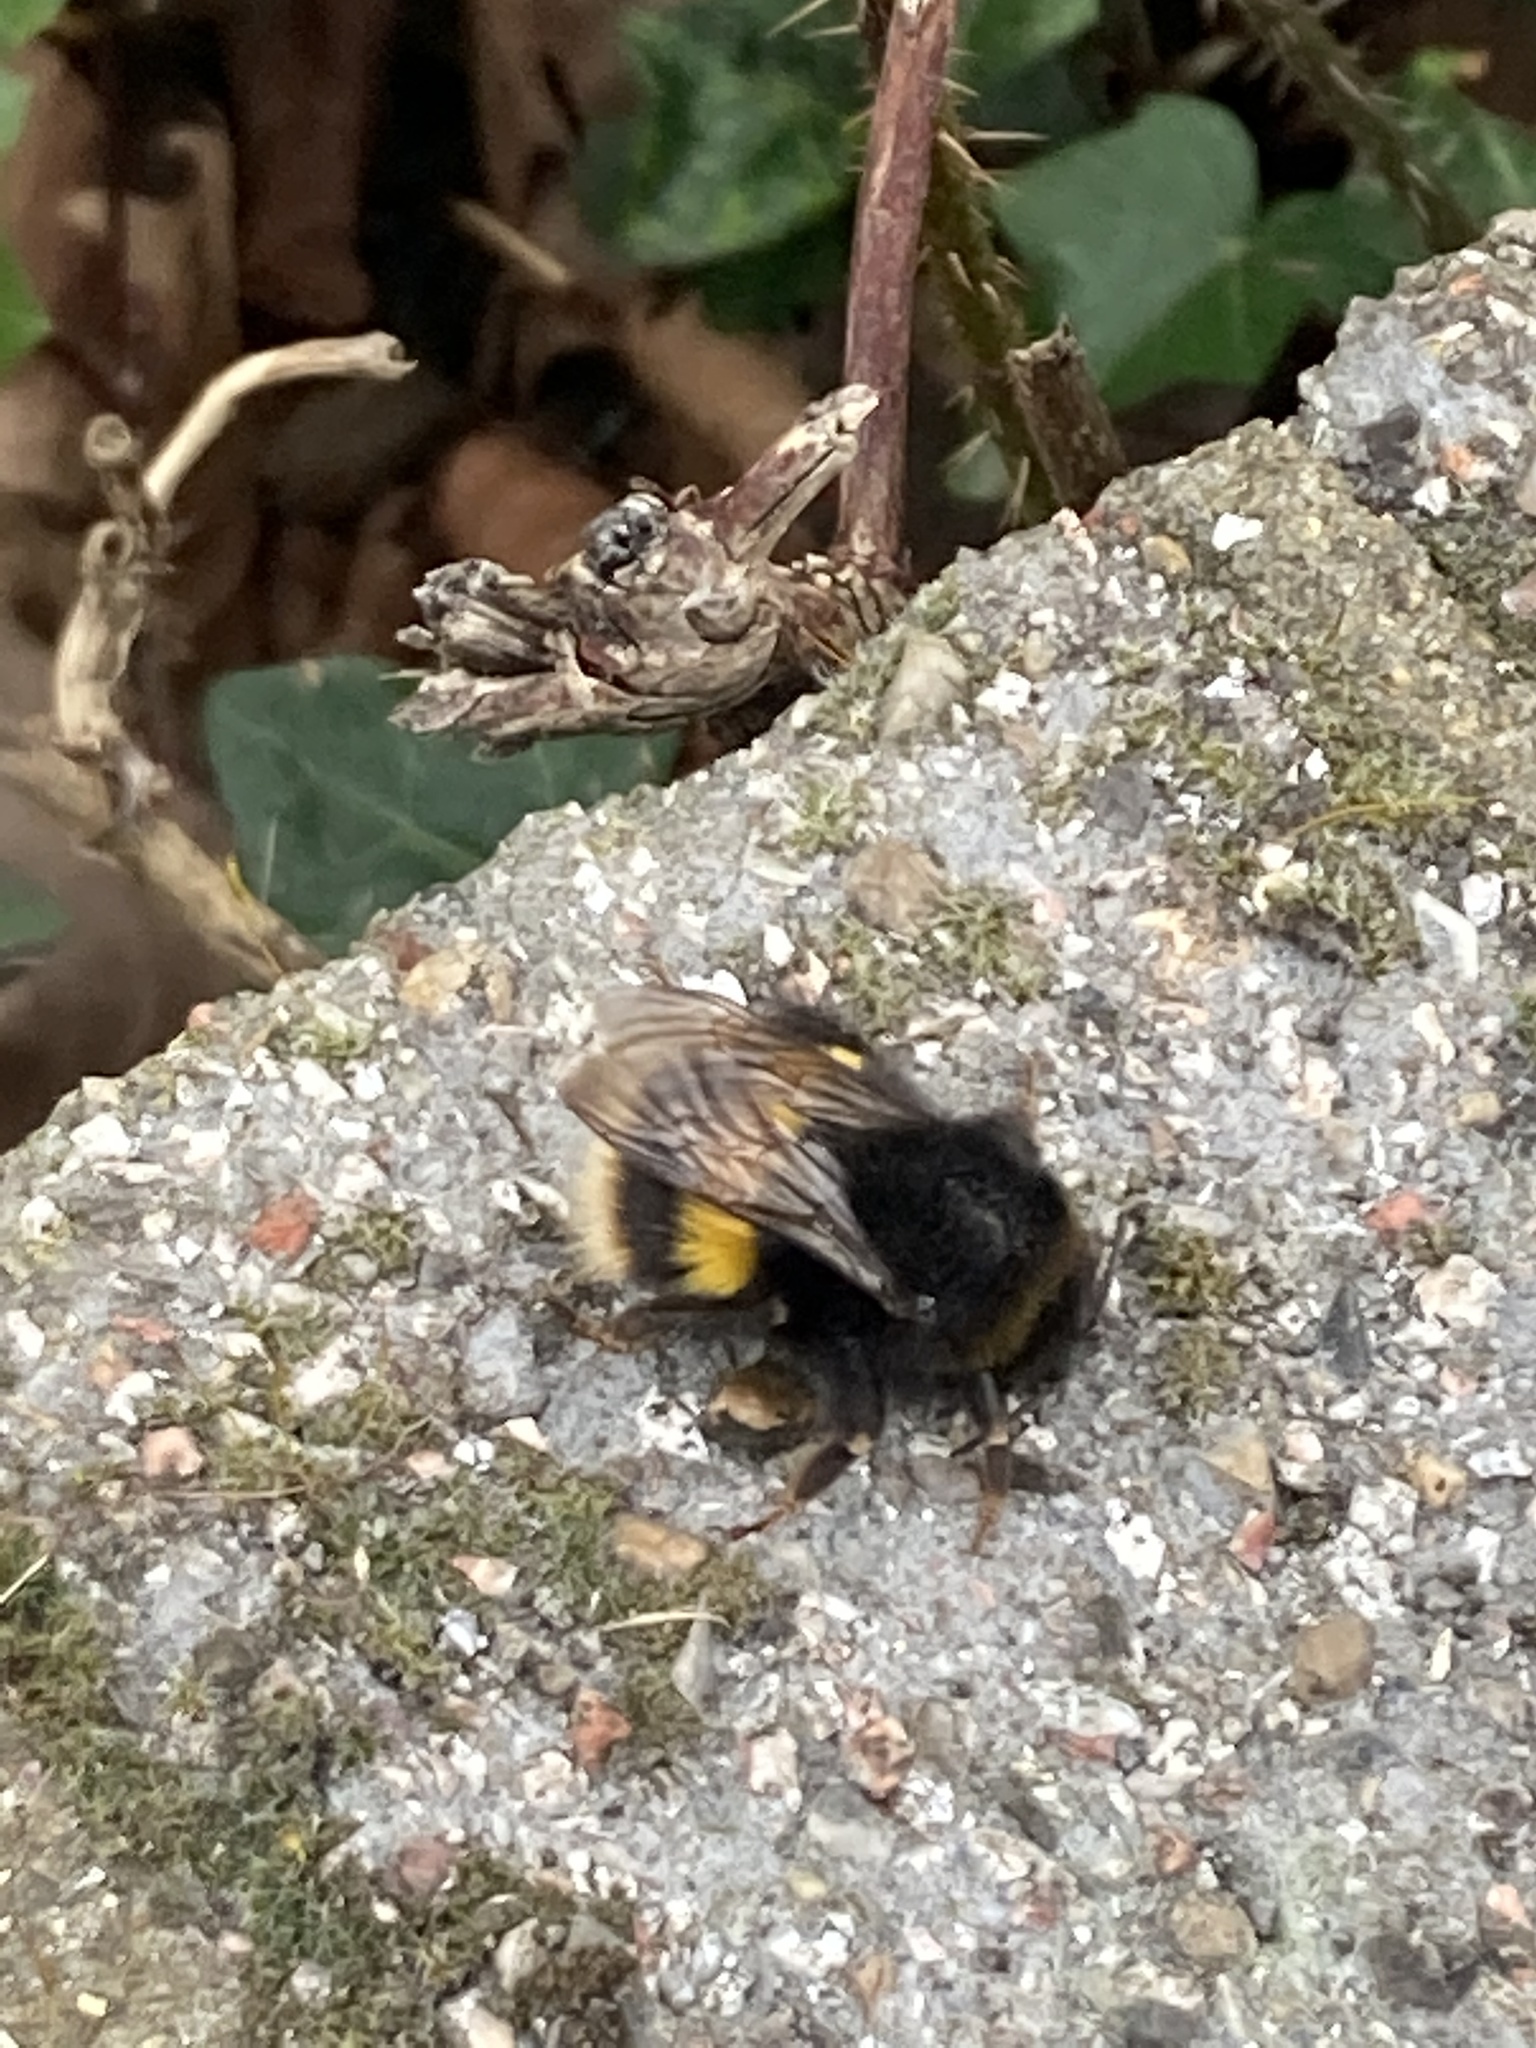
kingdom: Animalia
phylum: Arthropoda
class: Insecta
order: Hymenoptera
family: Apidae
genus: Bombus
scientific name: Bombus terrestris
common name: Buff-tailed bumblebee
